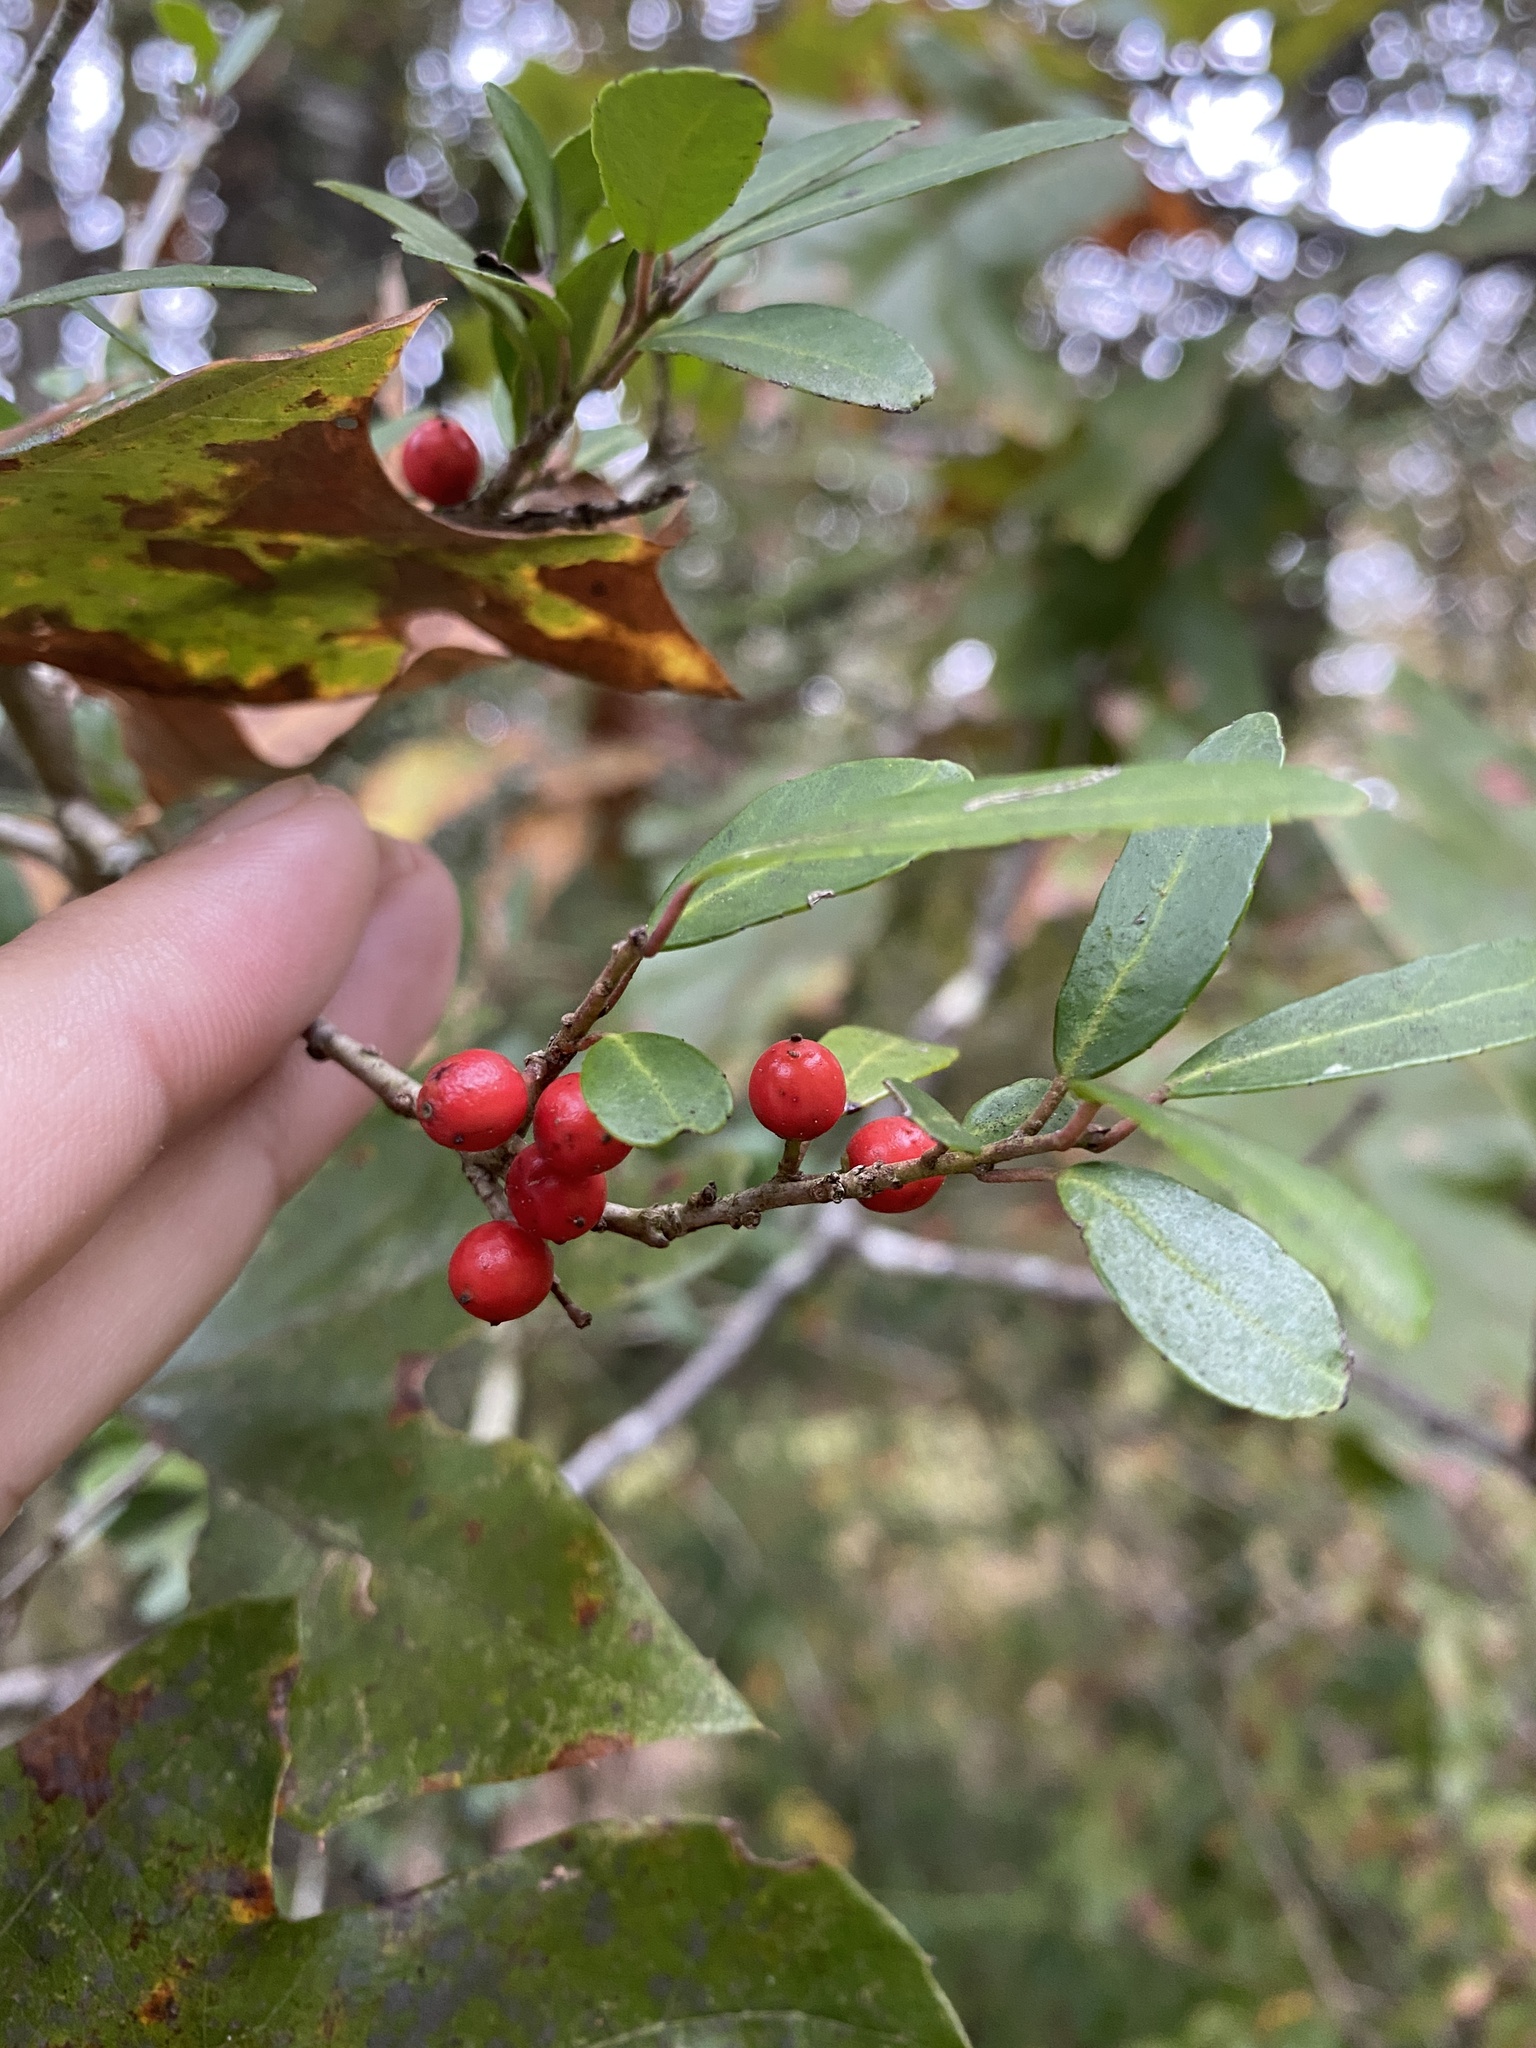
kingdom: Plantae
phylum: Tracheophyta
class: Magnoliopsida
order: Aquifoliales
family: Aquifoliaceae
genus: Ilex
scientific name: Ilex vomitoria
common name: Yaupon holly
